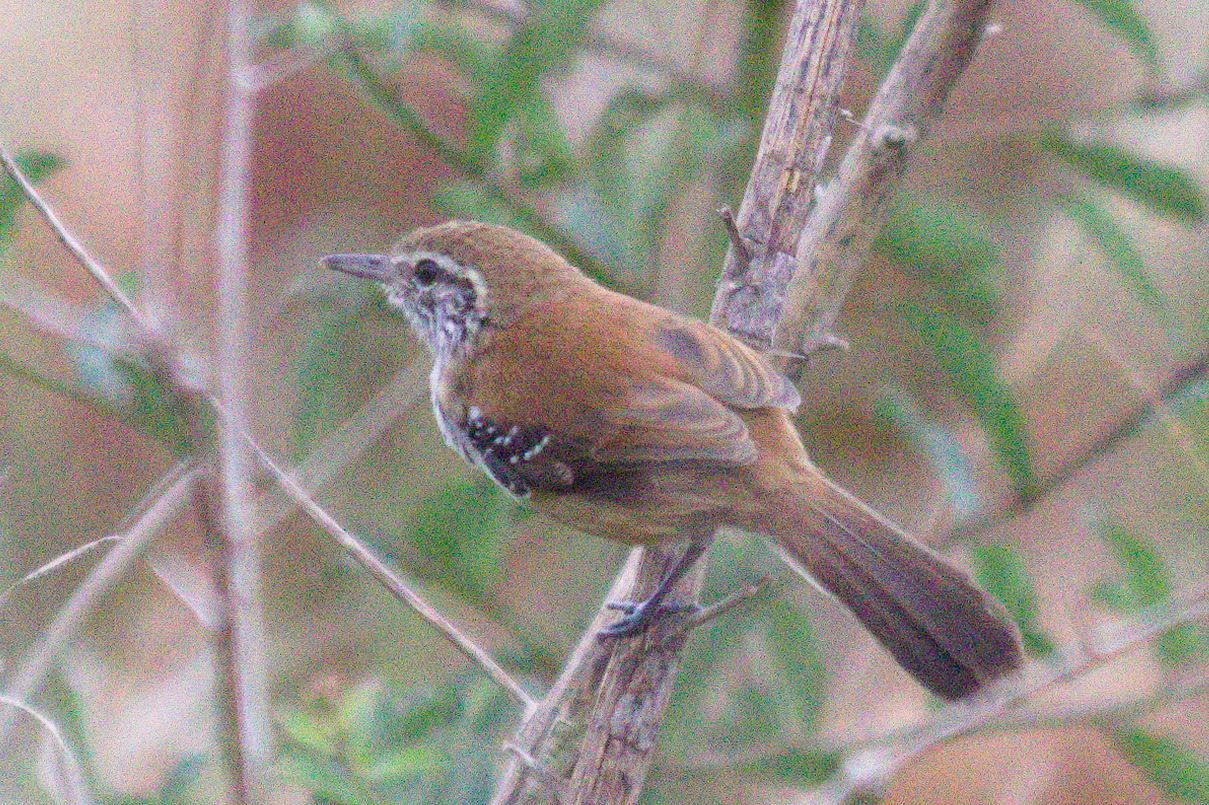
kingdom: Animalia
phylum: Chordata
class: Aves
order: Passeriformes
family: Thamnophilidae
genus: Formicivora
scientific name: Formicivora rufa
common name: Rusty-backed antwren
